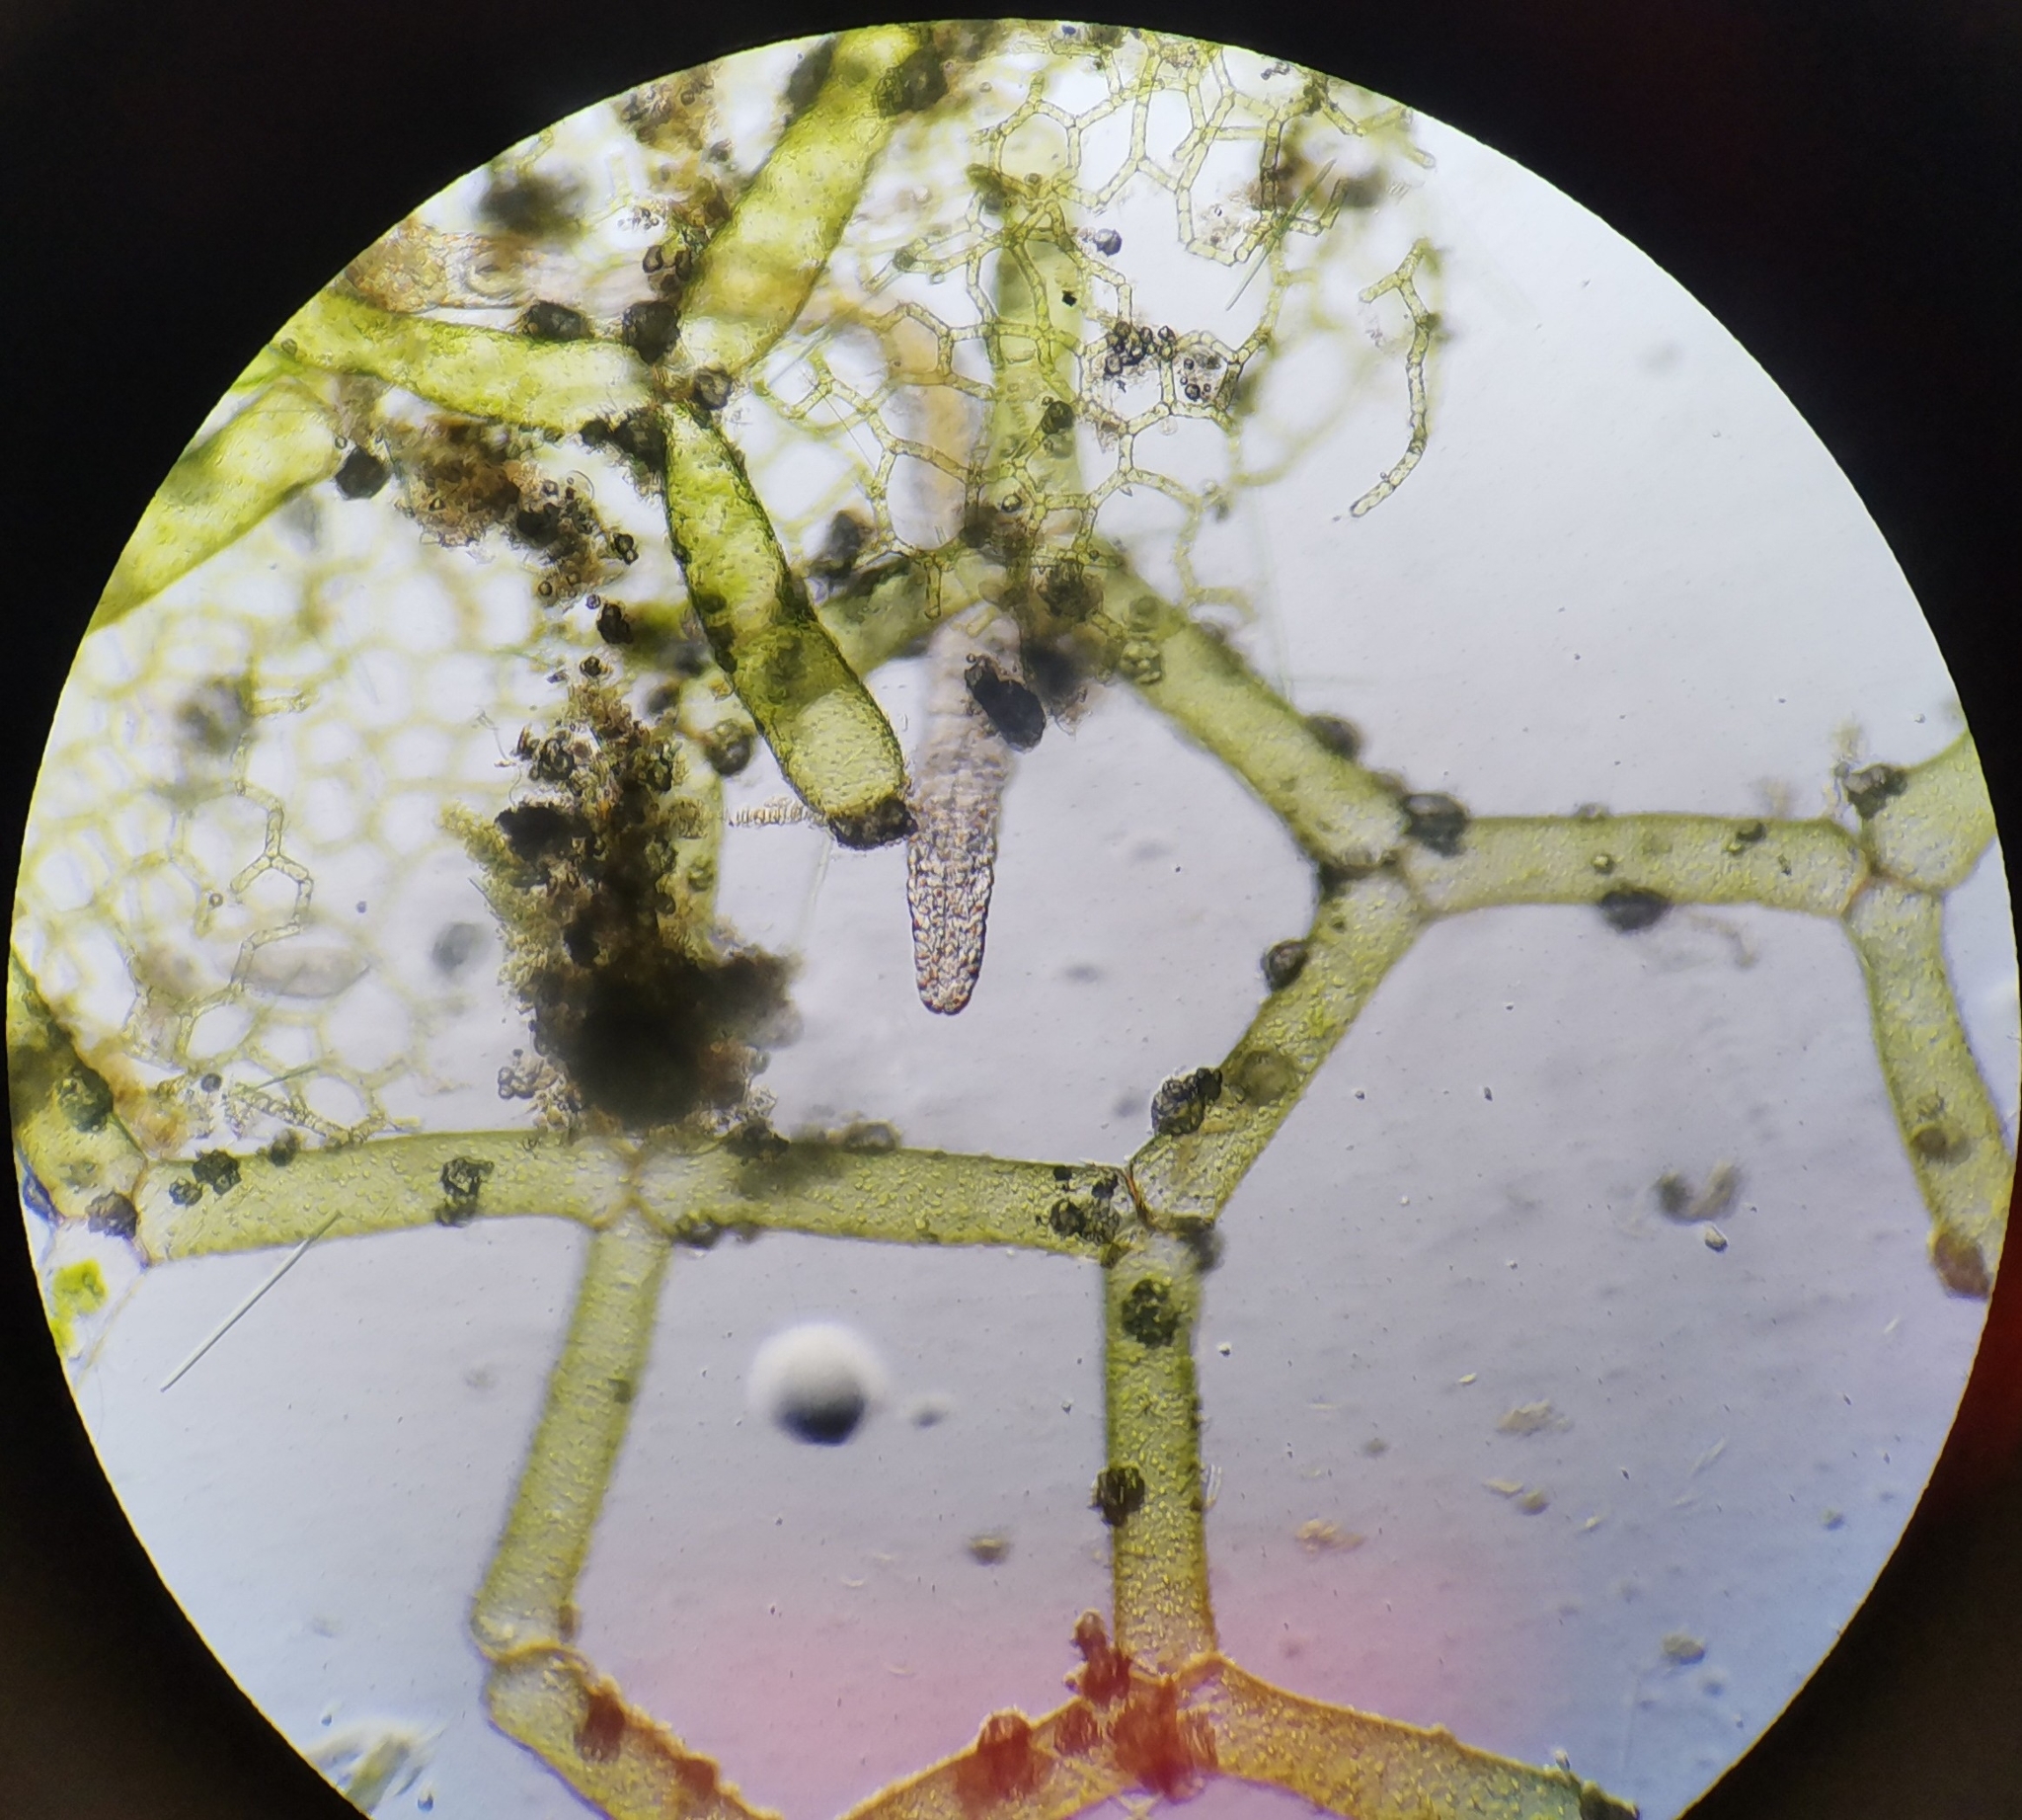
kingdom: Plantae
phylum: Chlorophyta
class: Chlorophyceae
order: Sphaeropleales
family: Hydrodictyaceae
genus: Hydrodictyon
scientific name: Hydrodictyon reticulatum
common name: Water net
